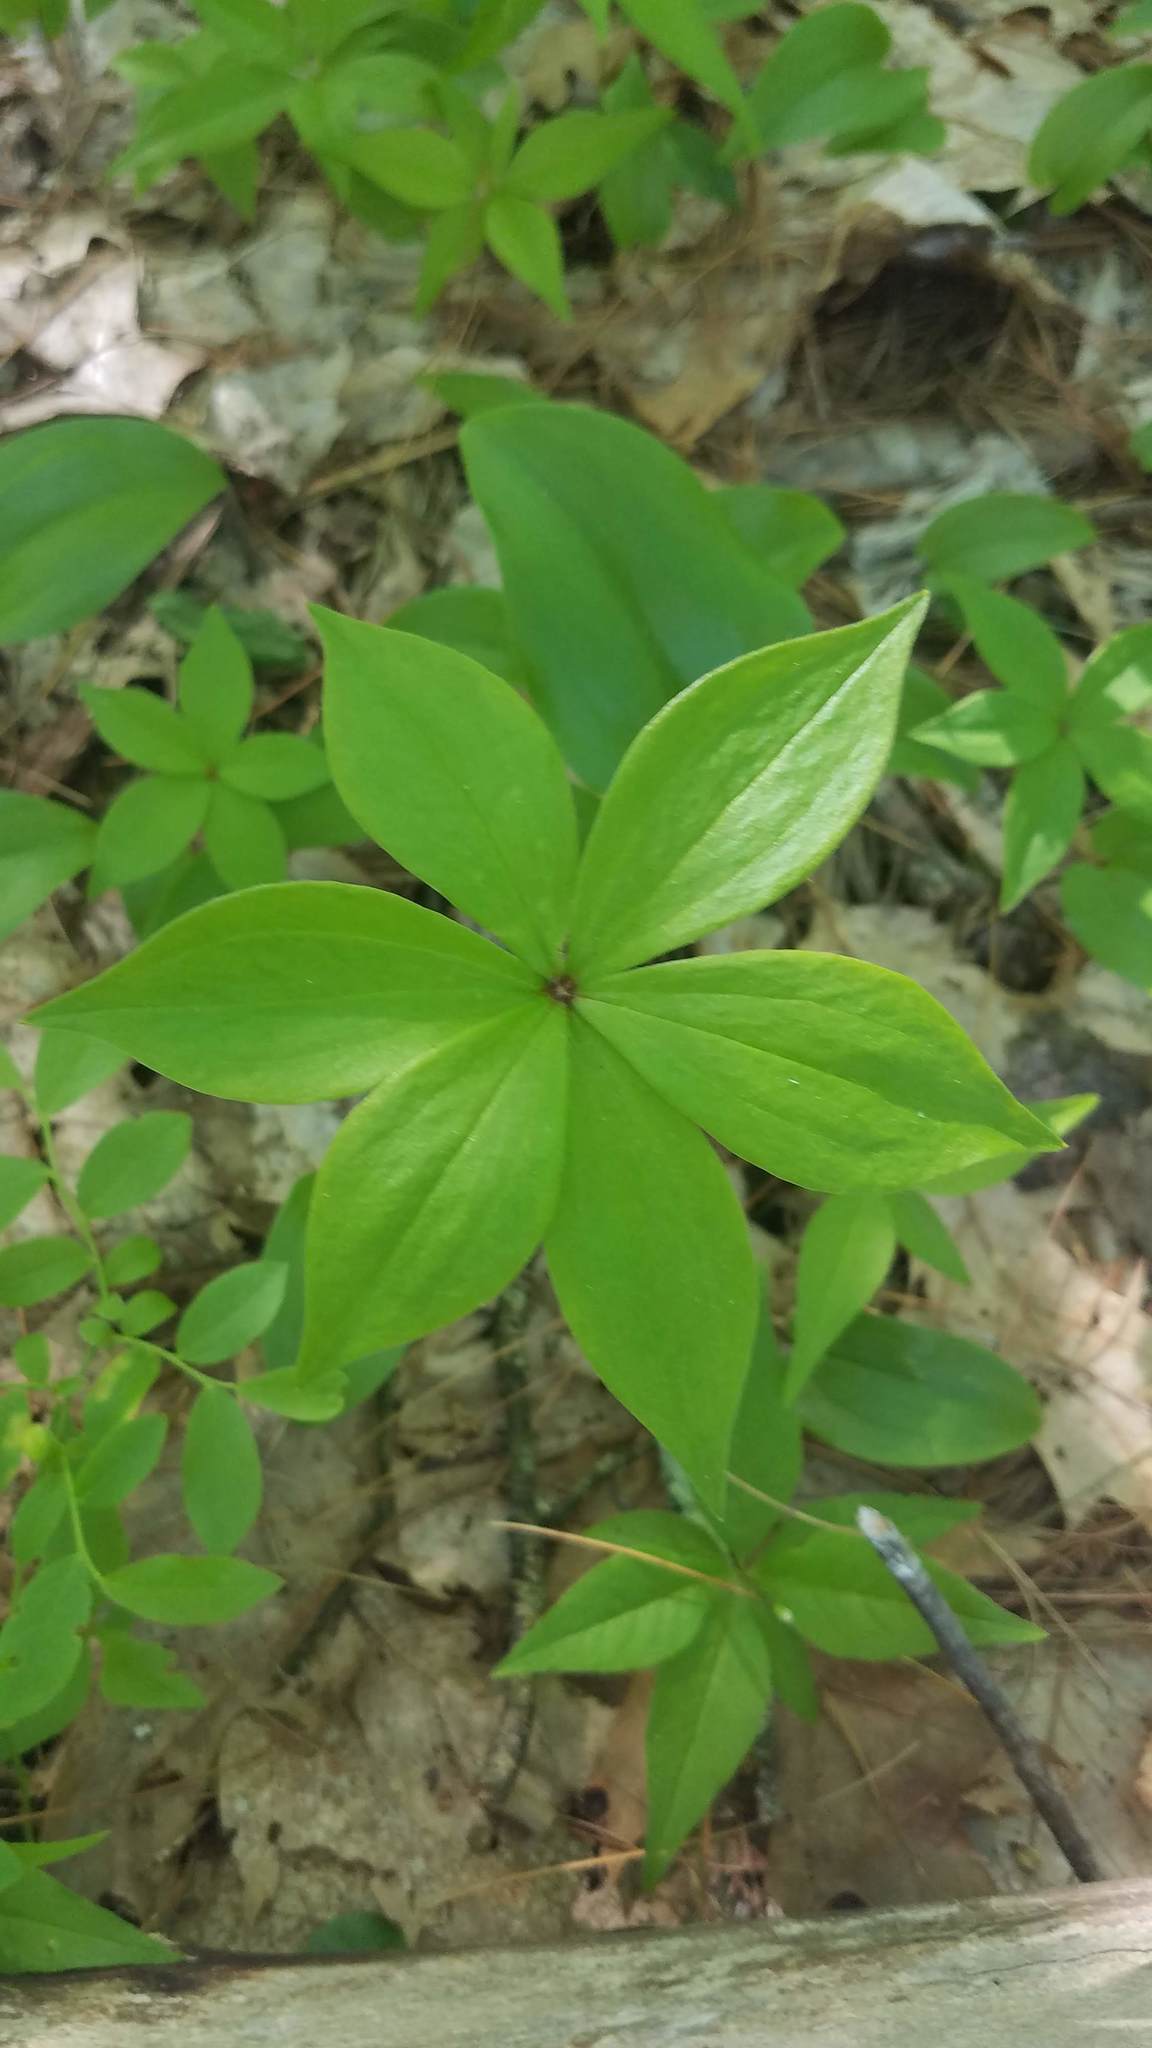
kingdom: Plantae
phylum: Tracheophyta
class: Liliopsida
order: Liliales
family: Liliaceae
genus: Medeola
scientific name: Medeola virginiana
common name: Indian cucumber-root
